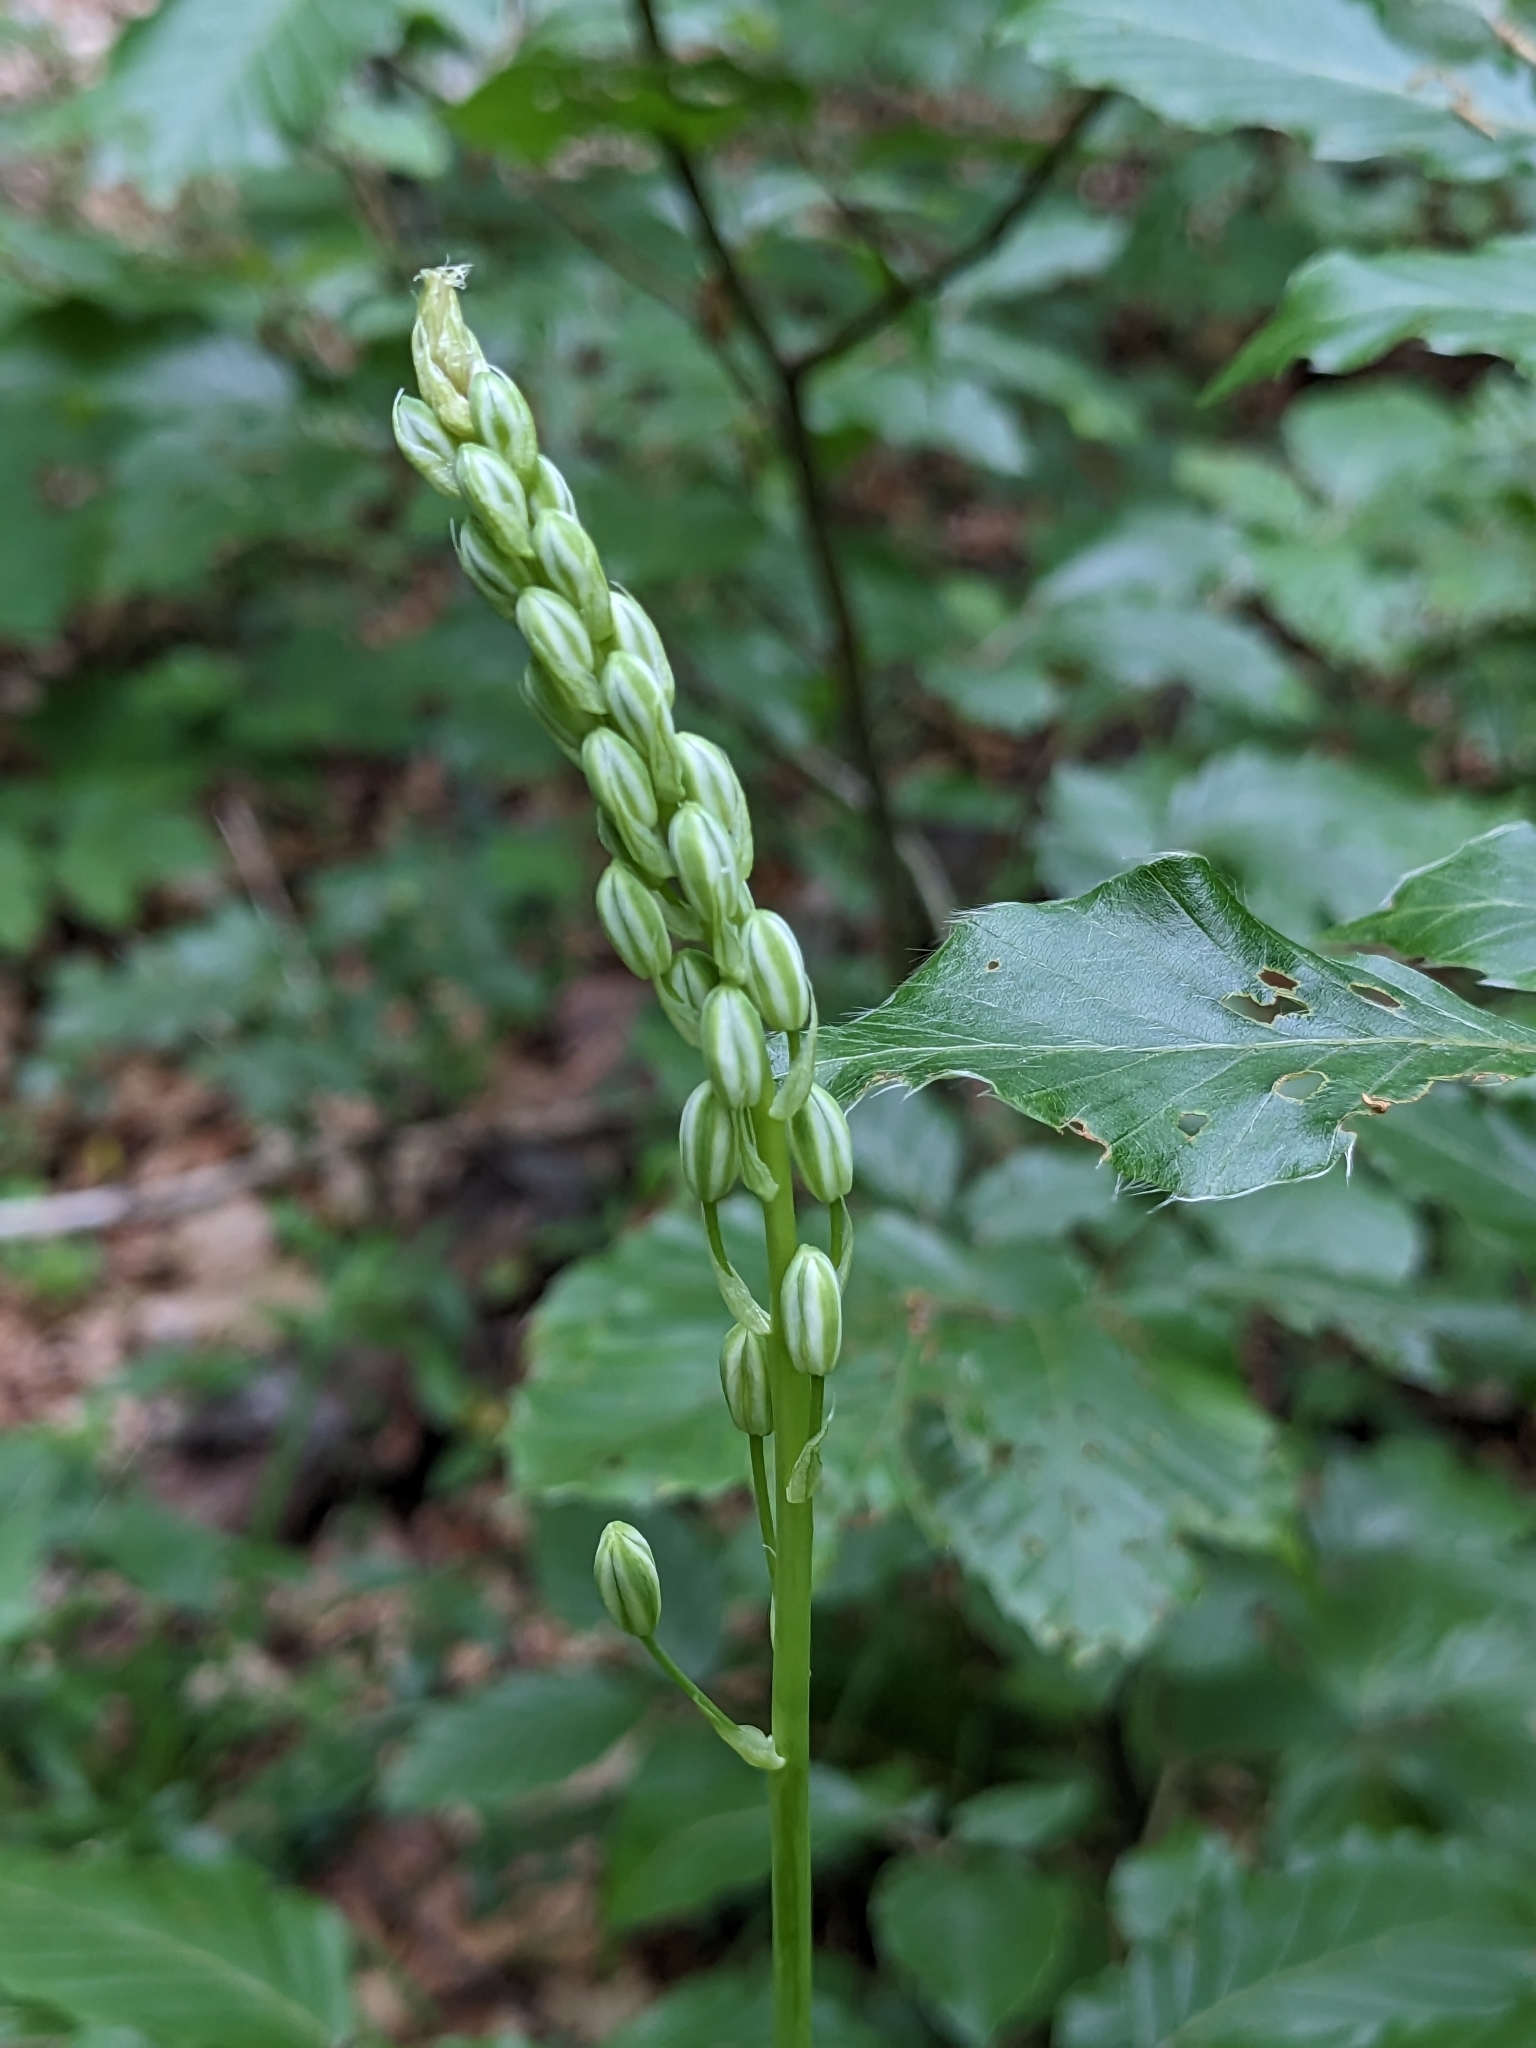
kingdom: Plantae
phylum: Tracheophyta
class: Liliopsida
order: Asparagales
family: Asparagaceae
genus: Ornithogalum
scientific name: Ornithogalum pyrenaicum
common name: Spiked star-of-bethlehem
